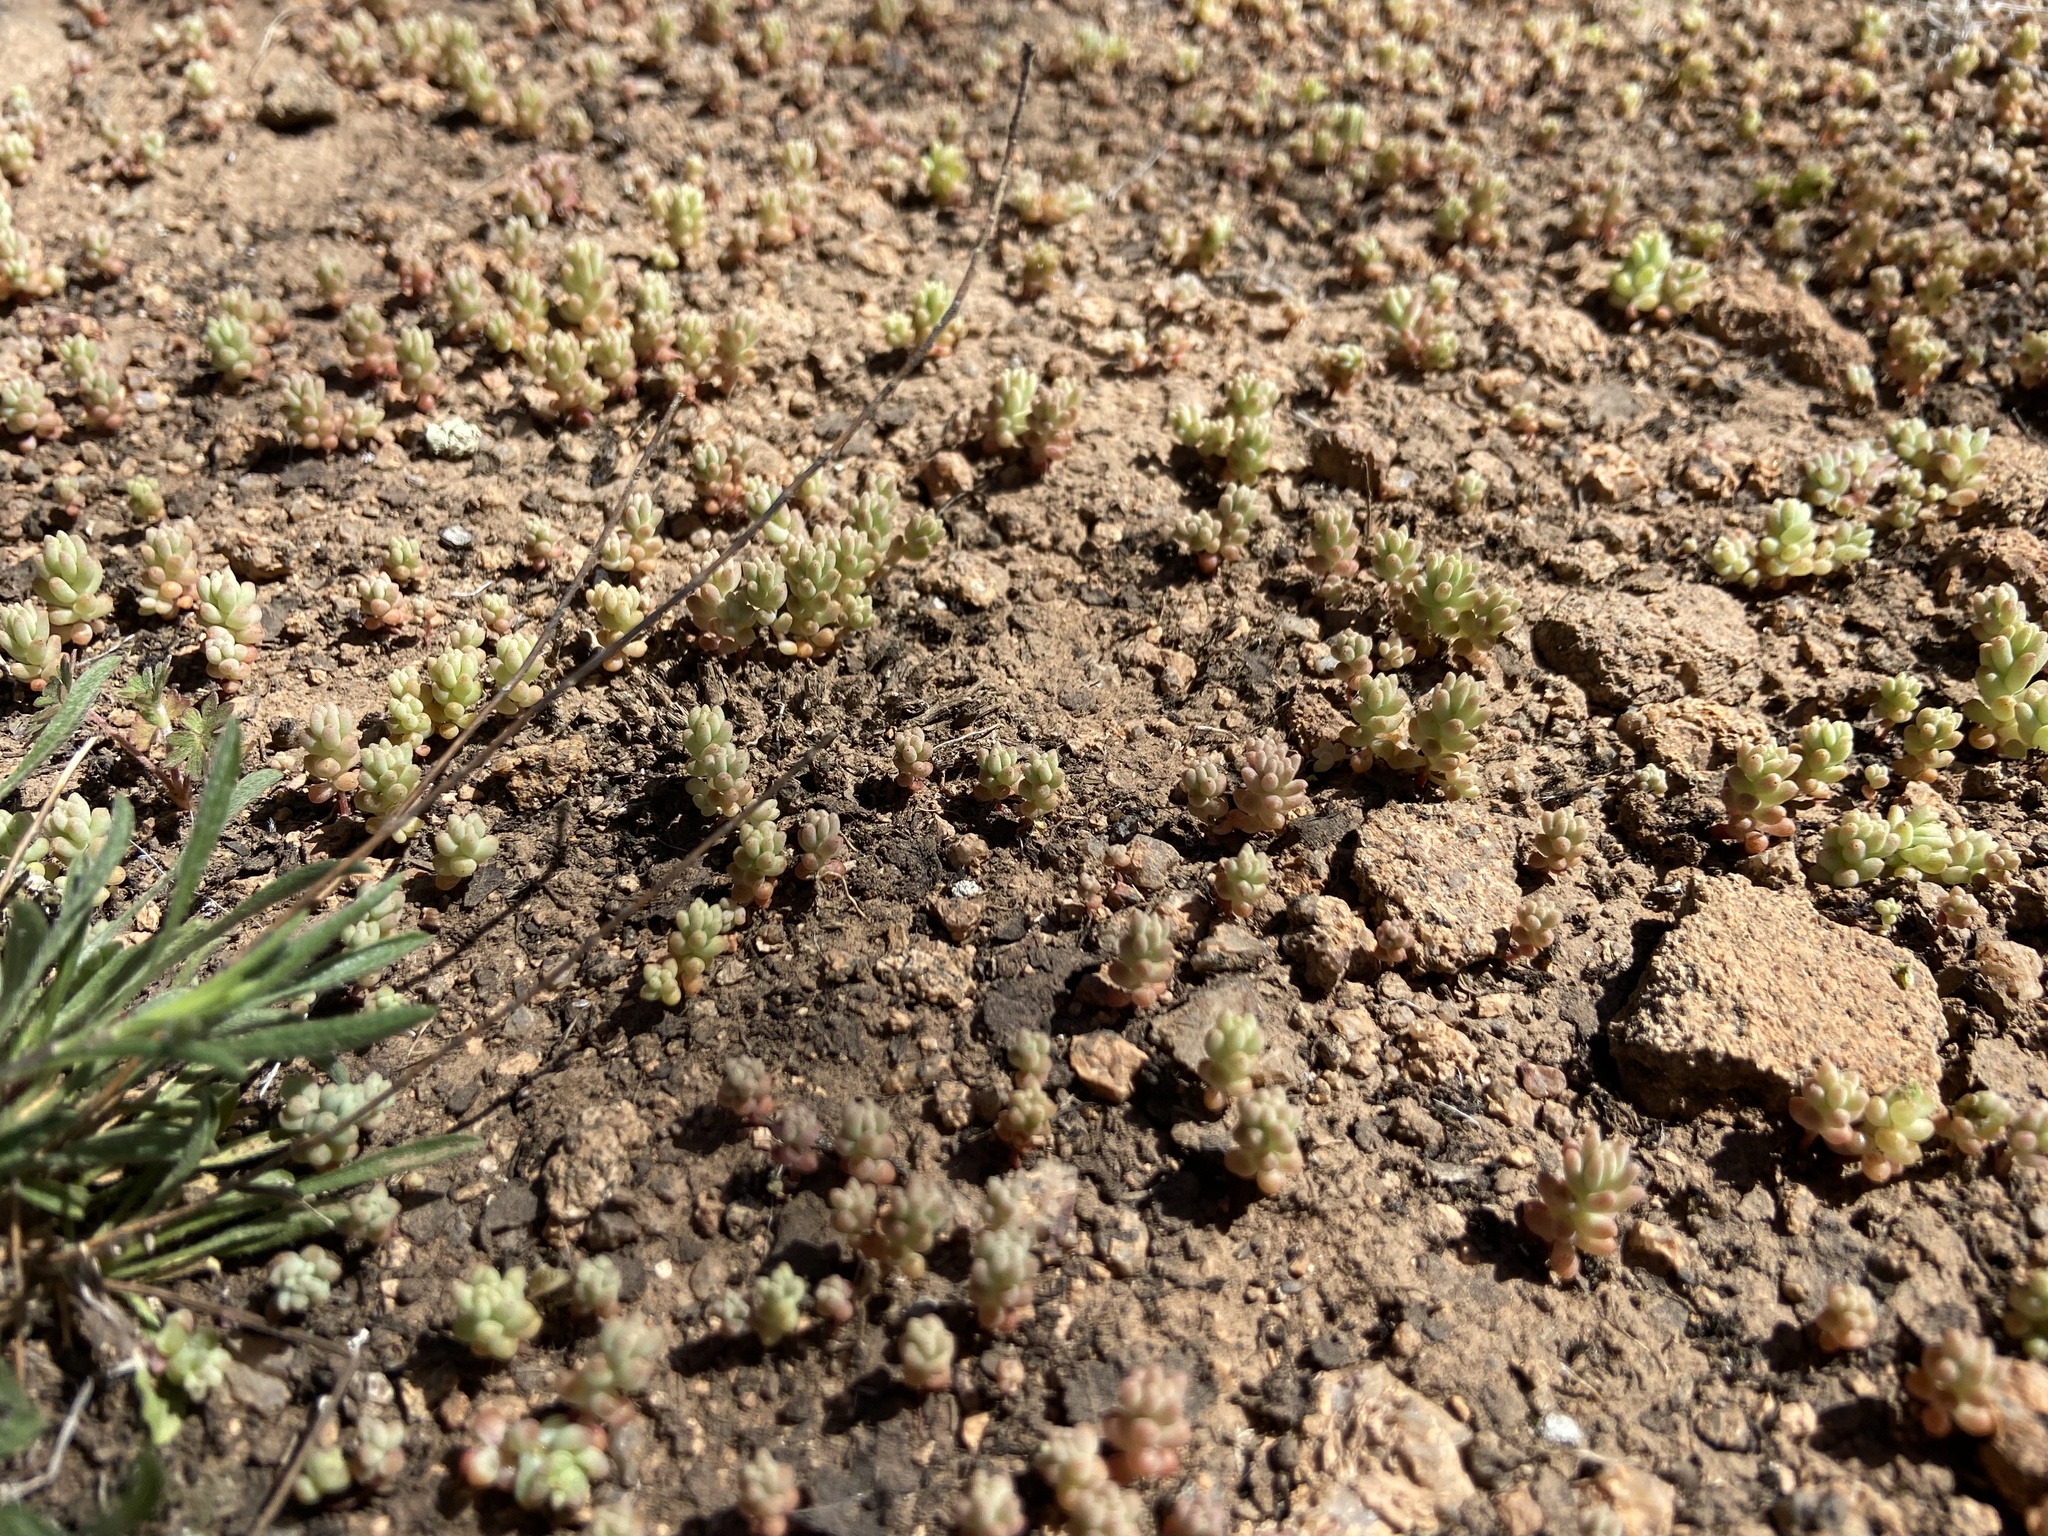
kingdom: Plantae
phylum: Tracheophyta
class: Magnoliopsida
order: Saxifragales
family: Crassulaceae
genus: Sedum
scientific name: Sedum nuttallii
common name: Yellow stonecrop
